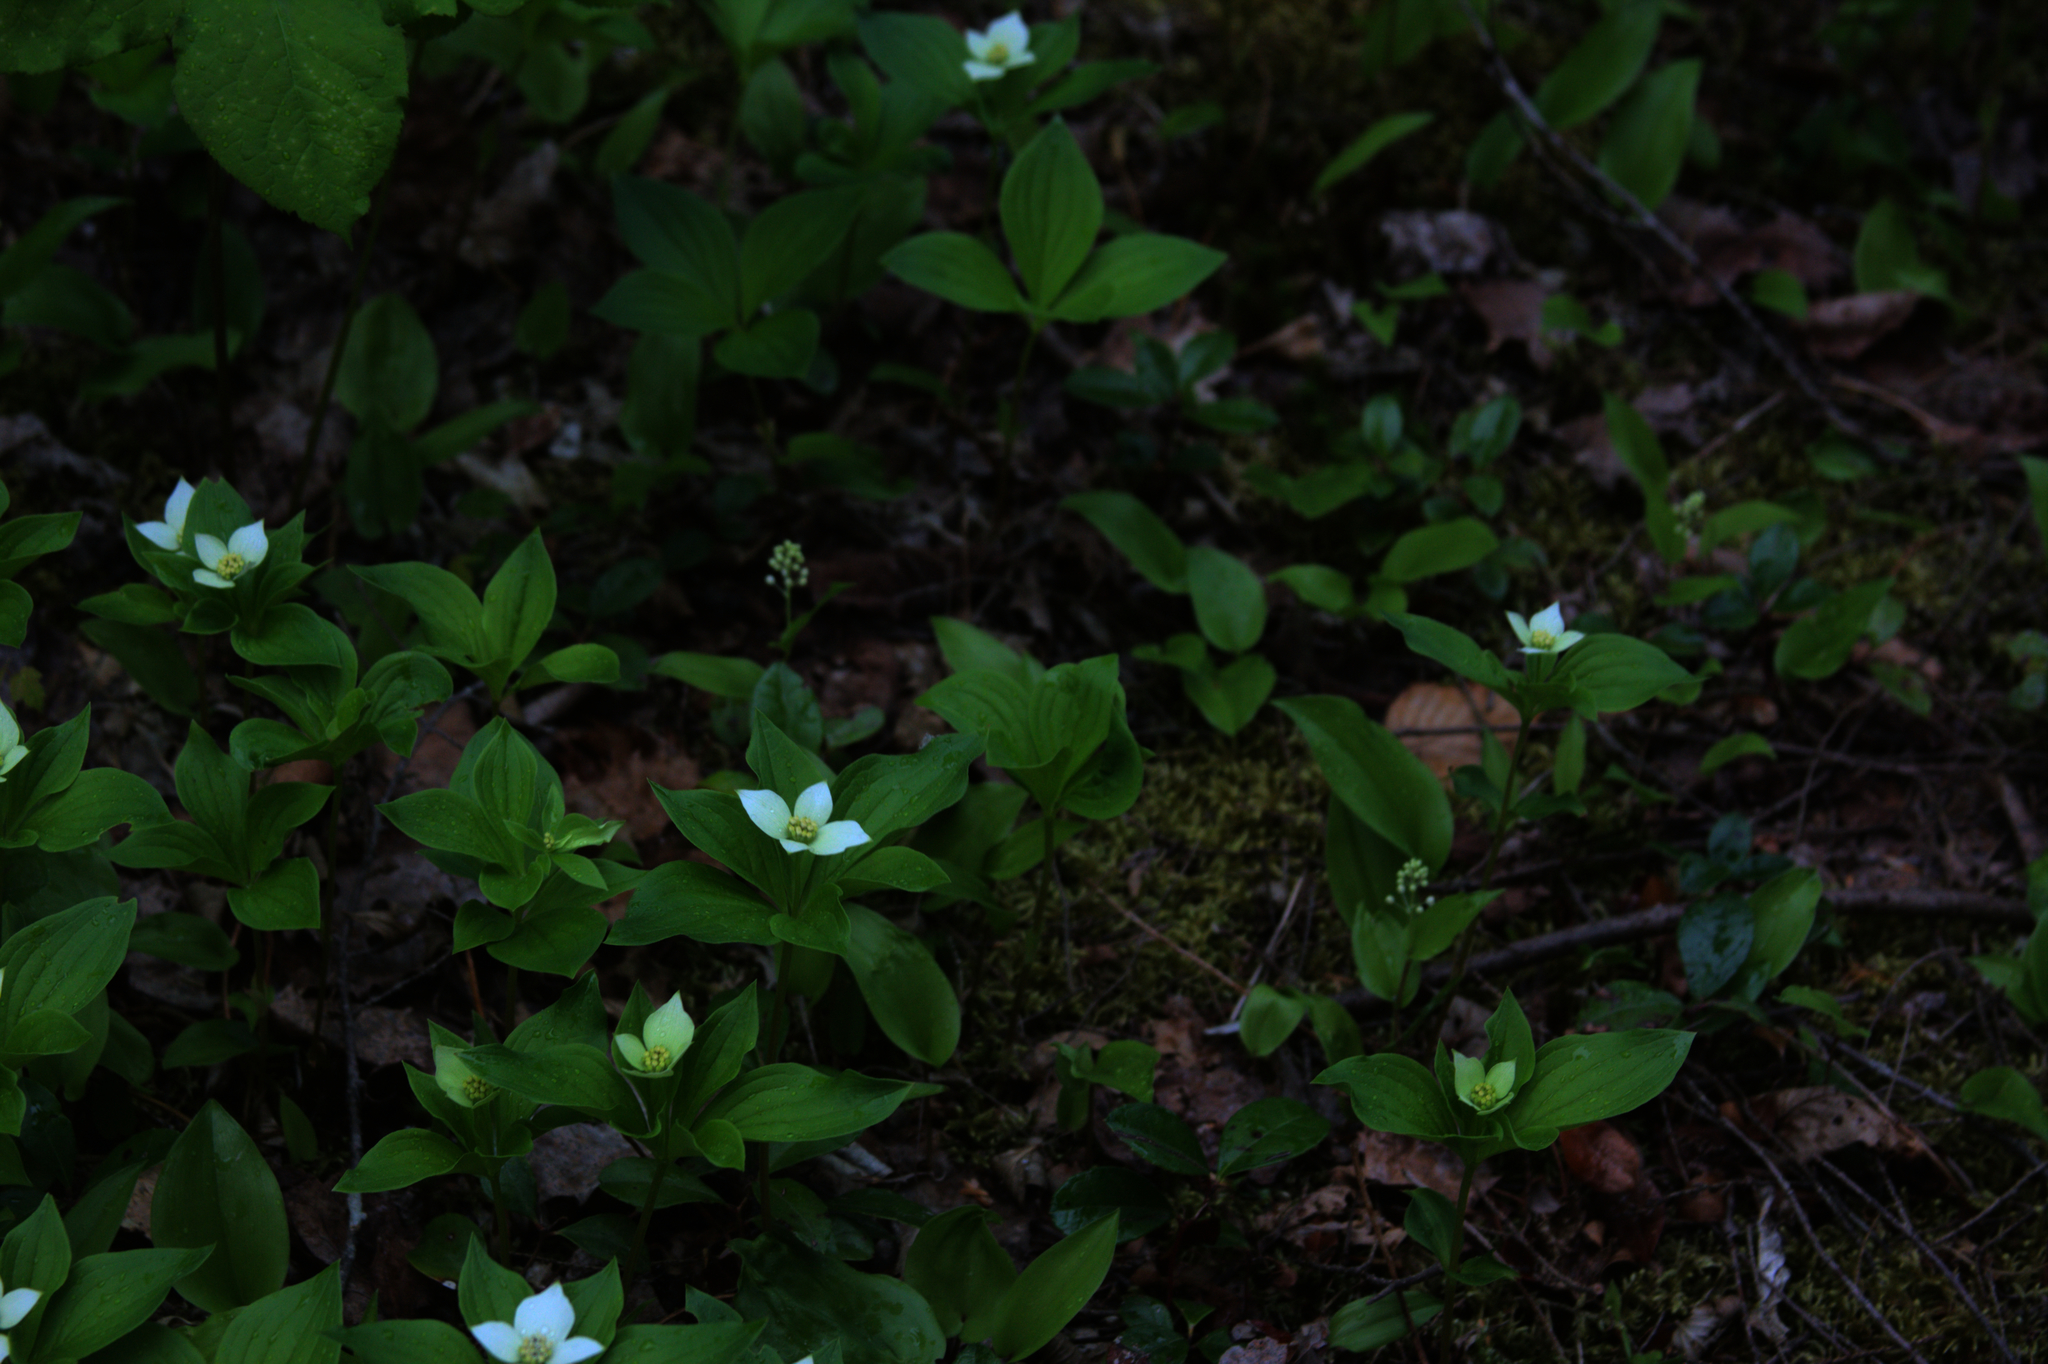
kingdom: Plantae
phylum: Tracheophyta
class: Magnoliopsida
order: Cornales
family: Cornaceae
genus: Cornus
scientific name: Cornus canadensis
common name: Creeping dogwood
